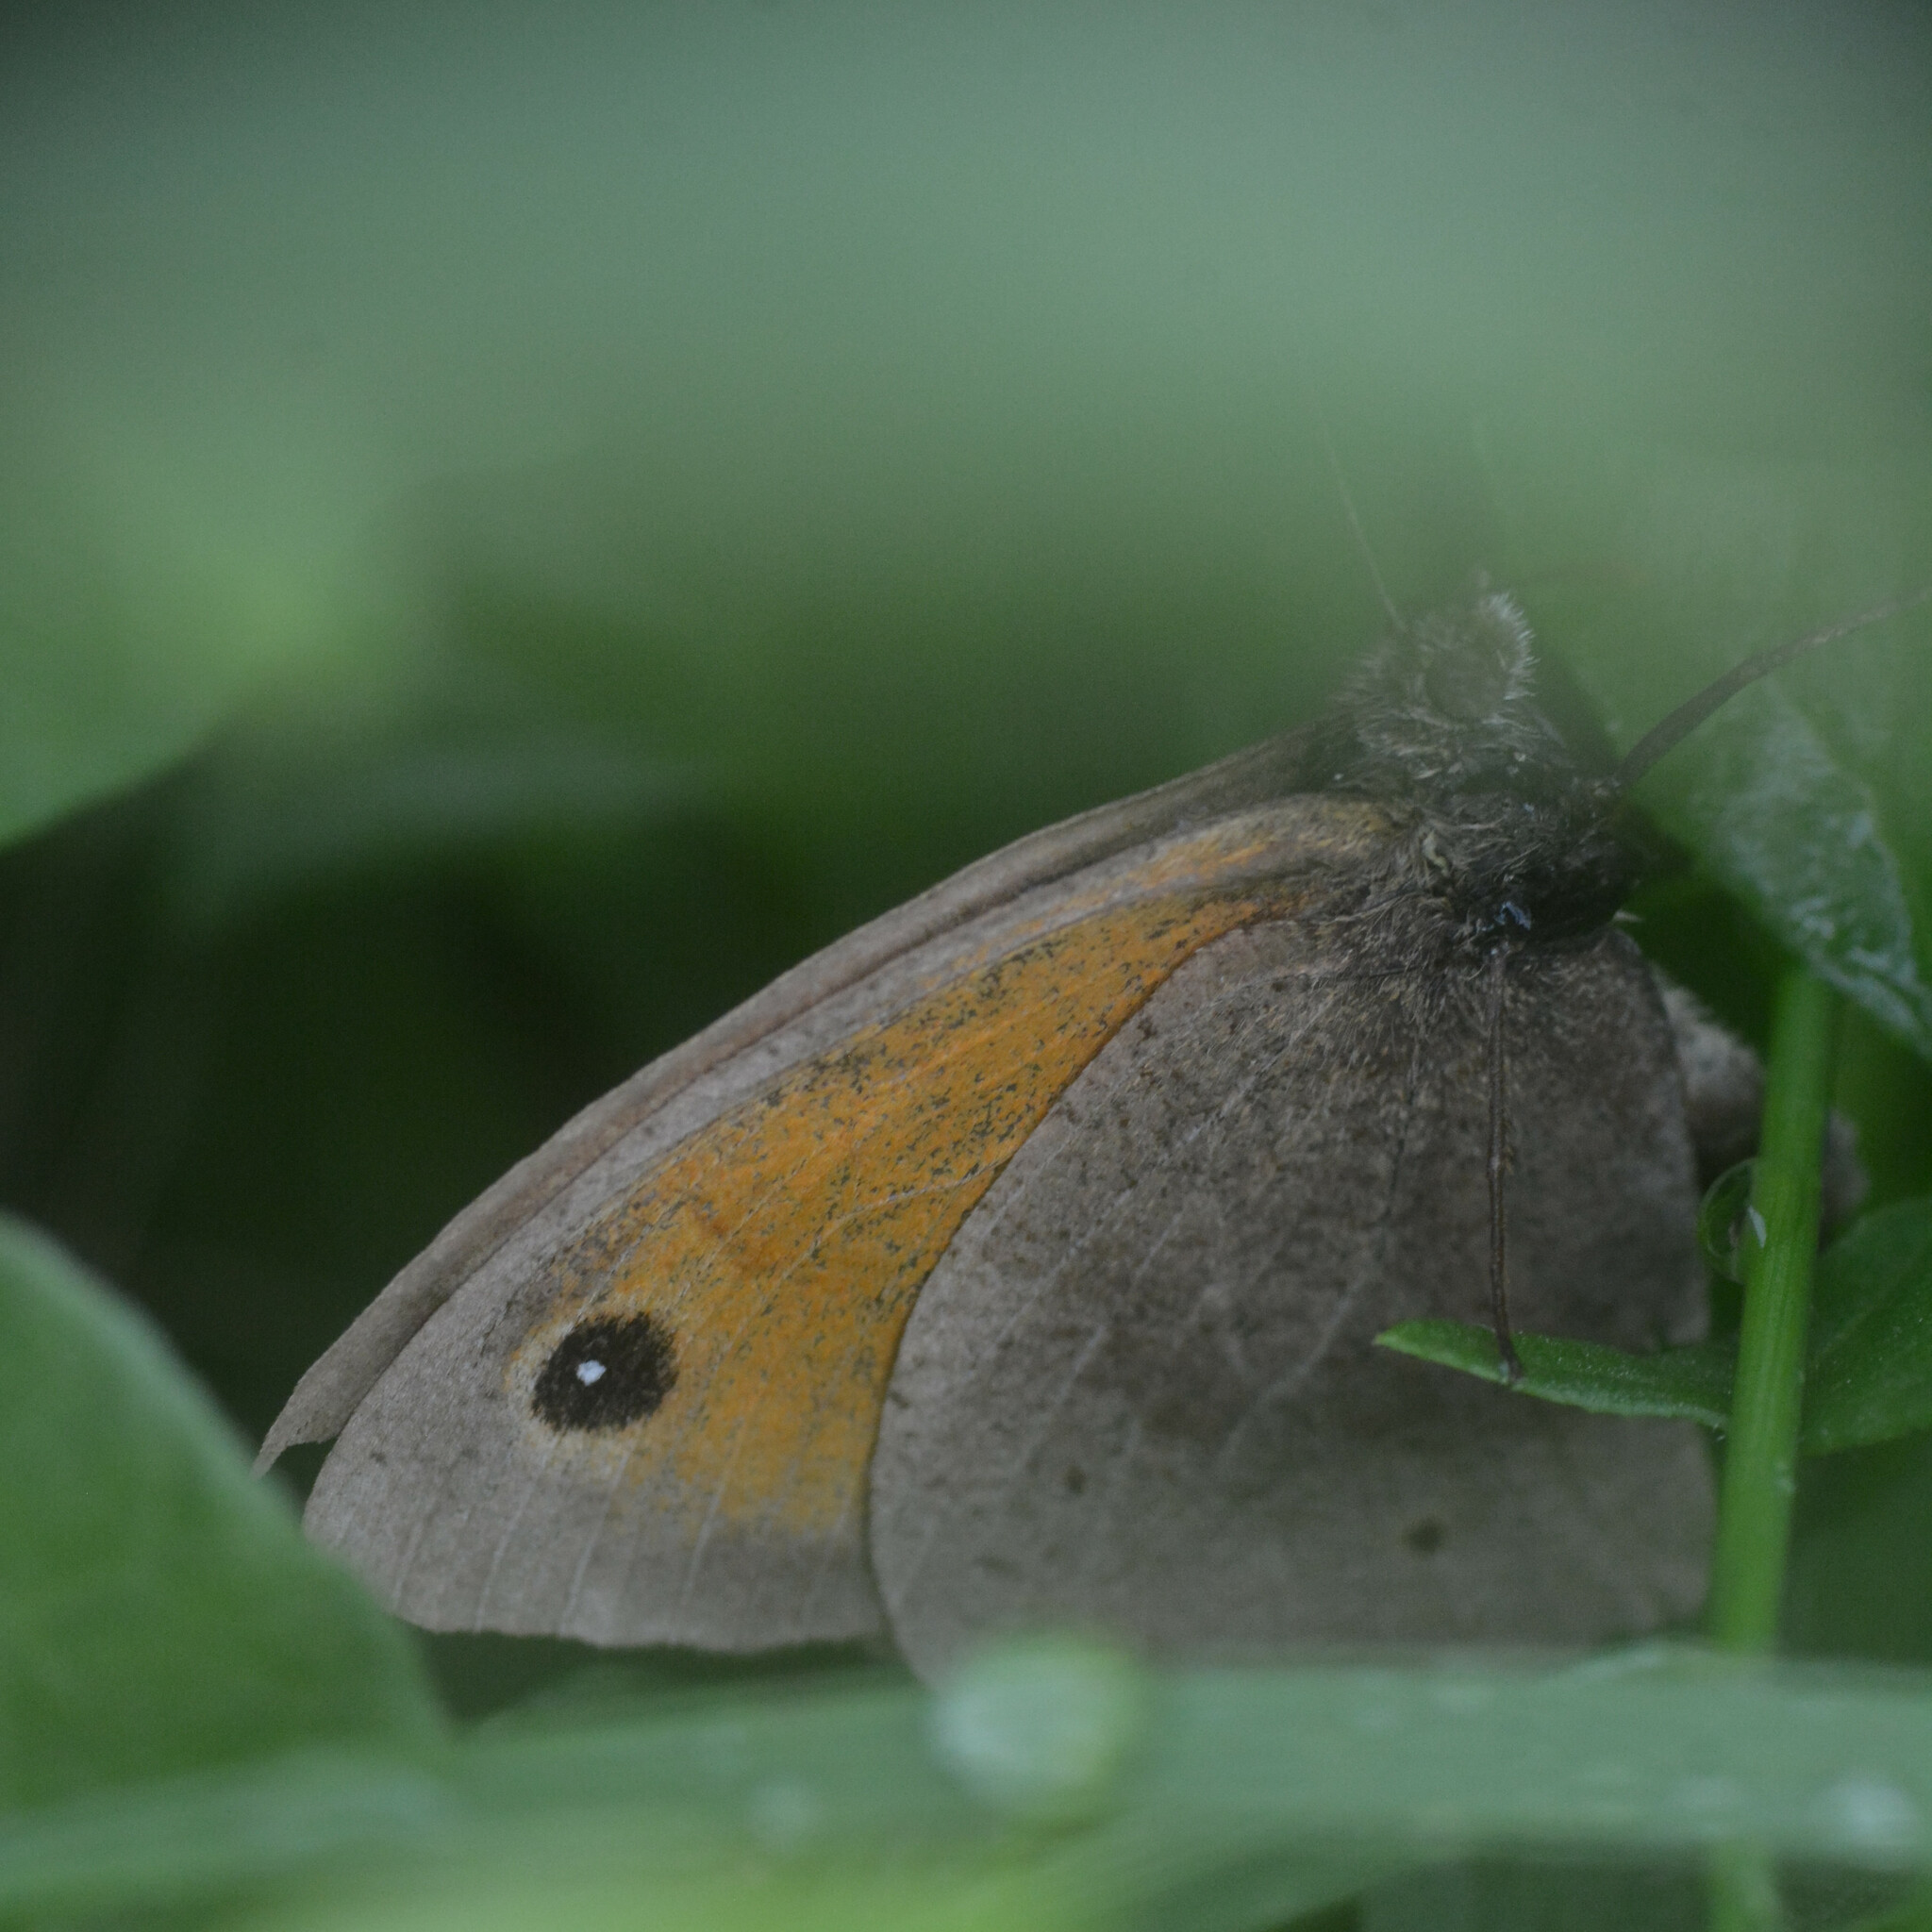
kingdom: Animalia
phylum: Arthropoda
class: Insecta
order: Lepidoptera
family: Nymphalidae
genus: Maniola
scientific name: Maniola jurtina
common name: Meadow brown
